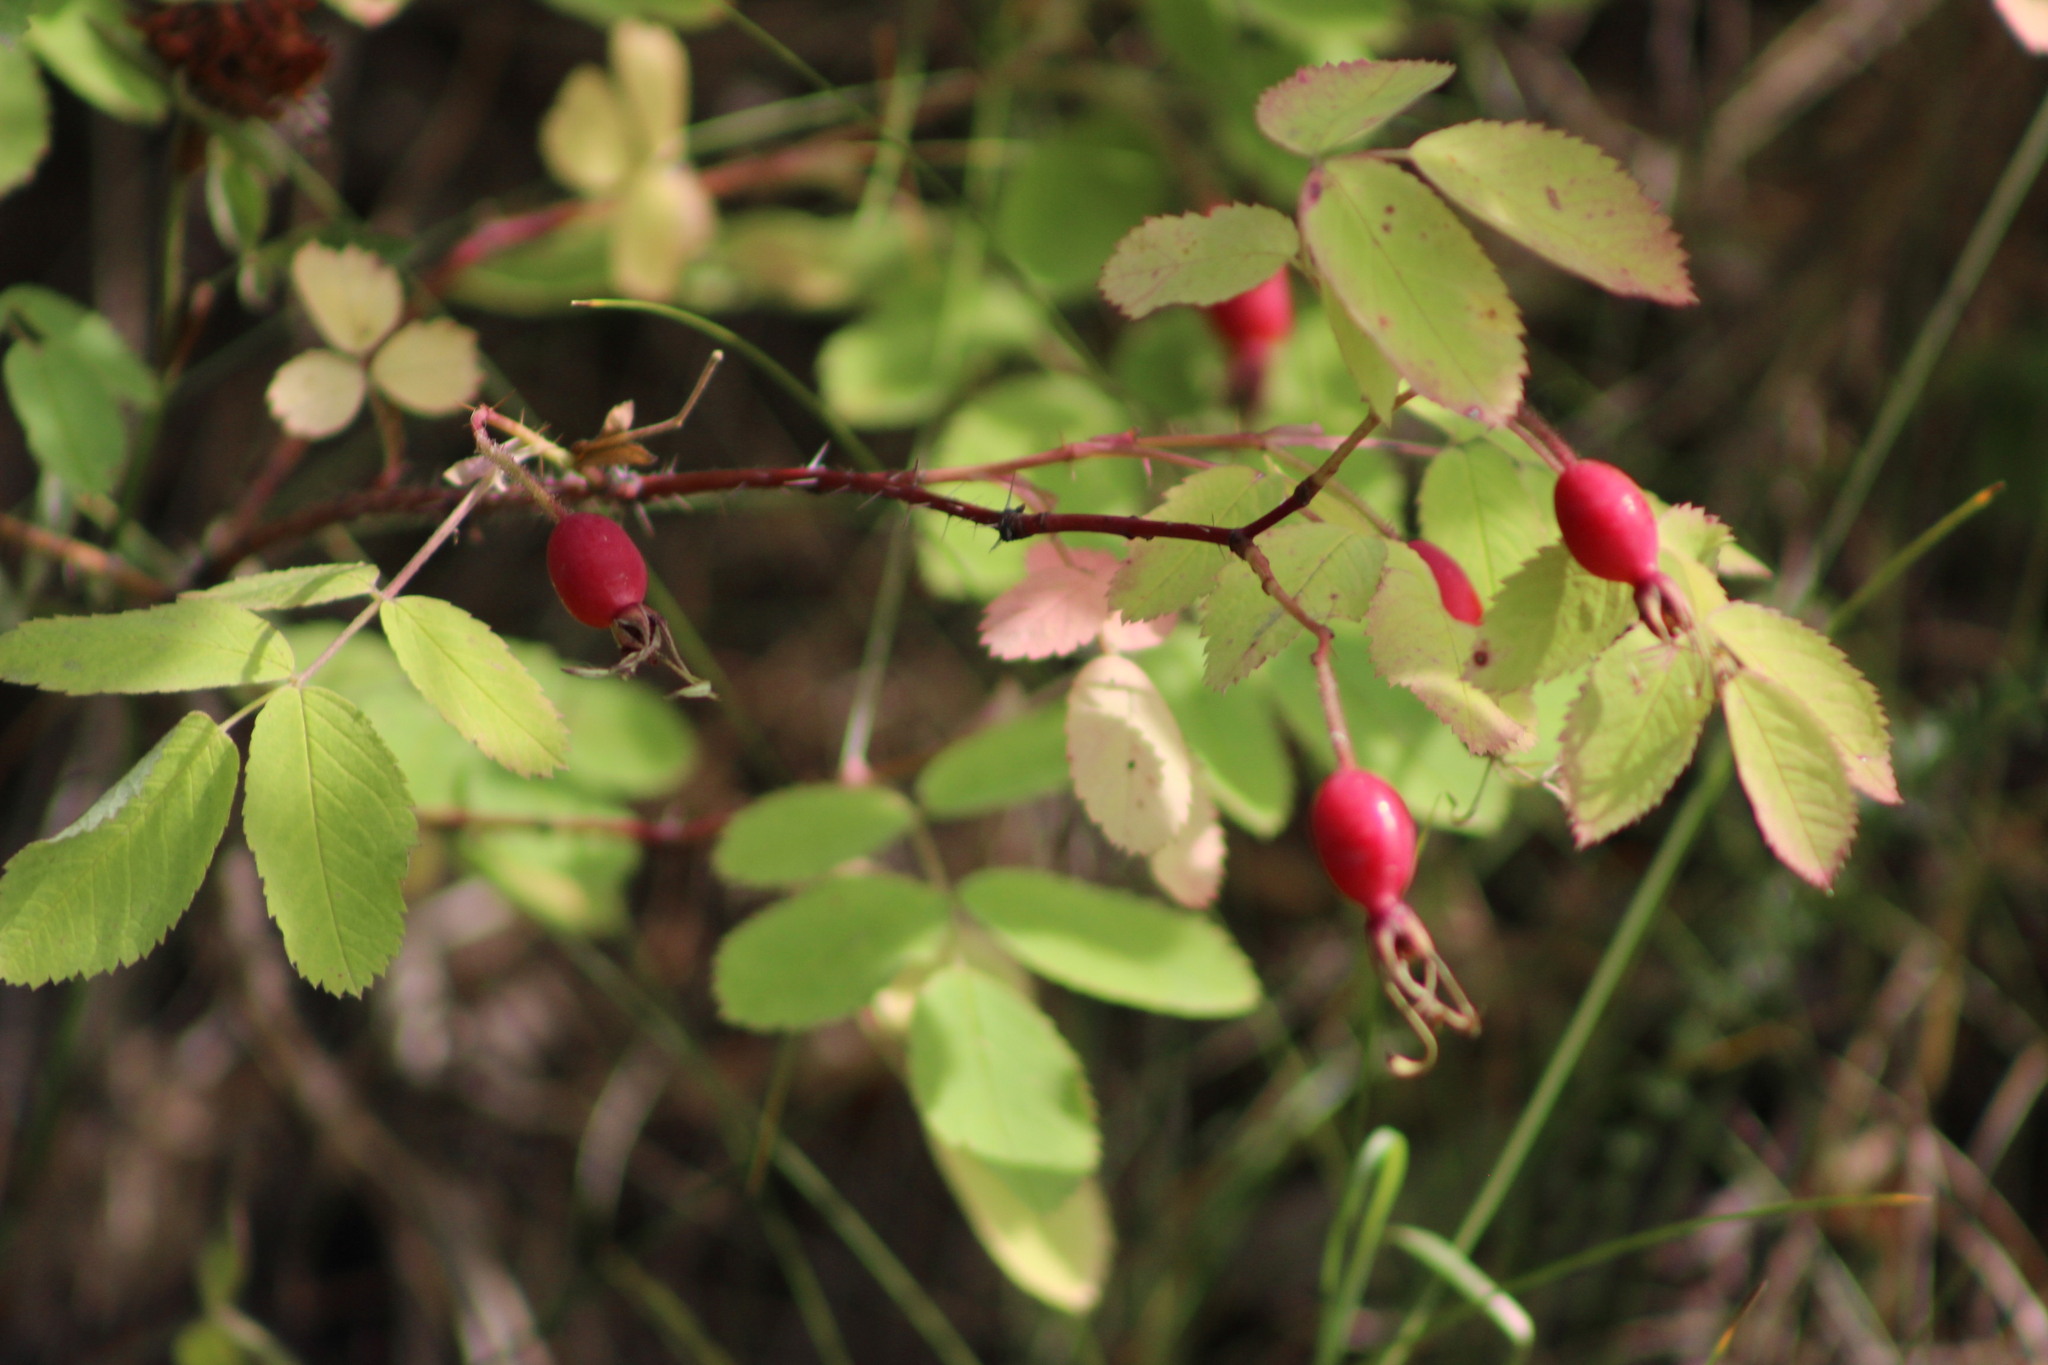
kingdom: Plantae
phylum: Tracheophyta
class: Magnoliopsida
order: Rosales
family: Rosaceae
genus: Rosa
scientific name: Rosa acicularis
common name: Prickly rose
